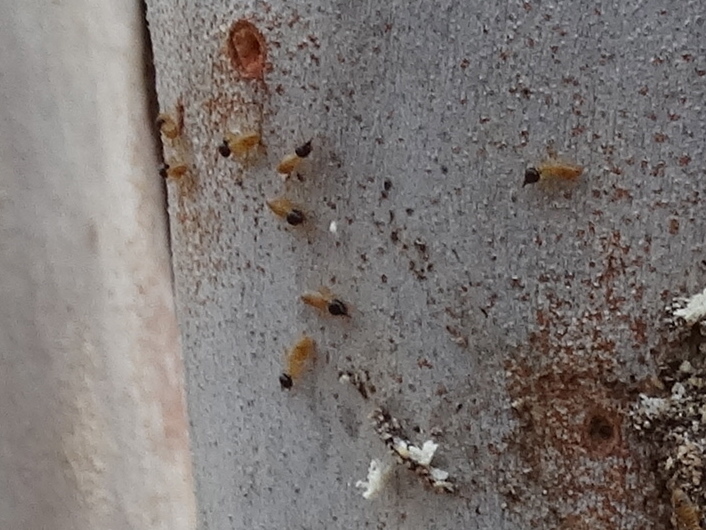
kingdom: Animalia
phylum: Arthropoda
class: Insecta
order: Blattodea
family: Termitidae
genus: Nasutitermes
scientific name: Nasutitermes
